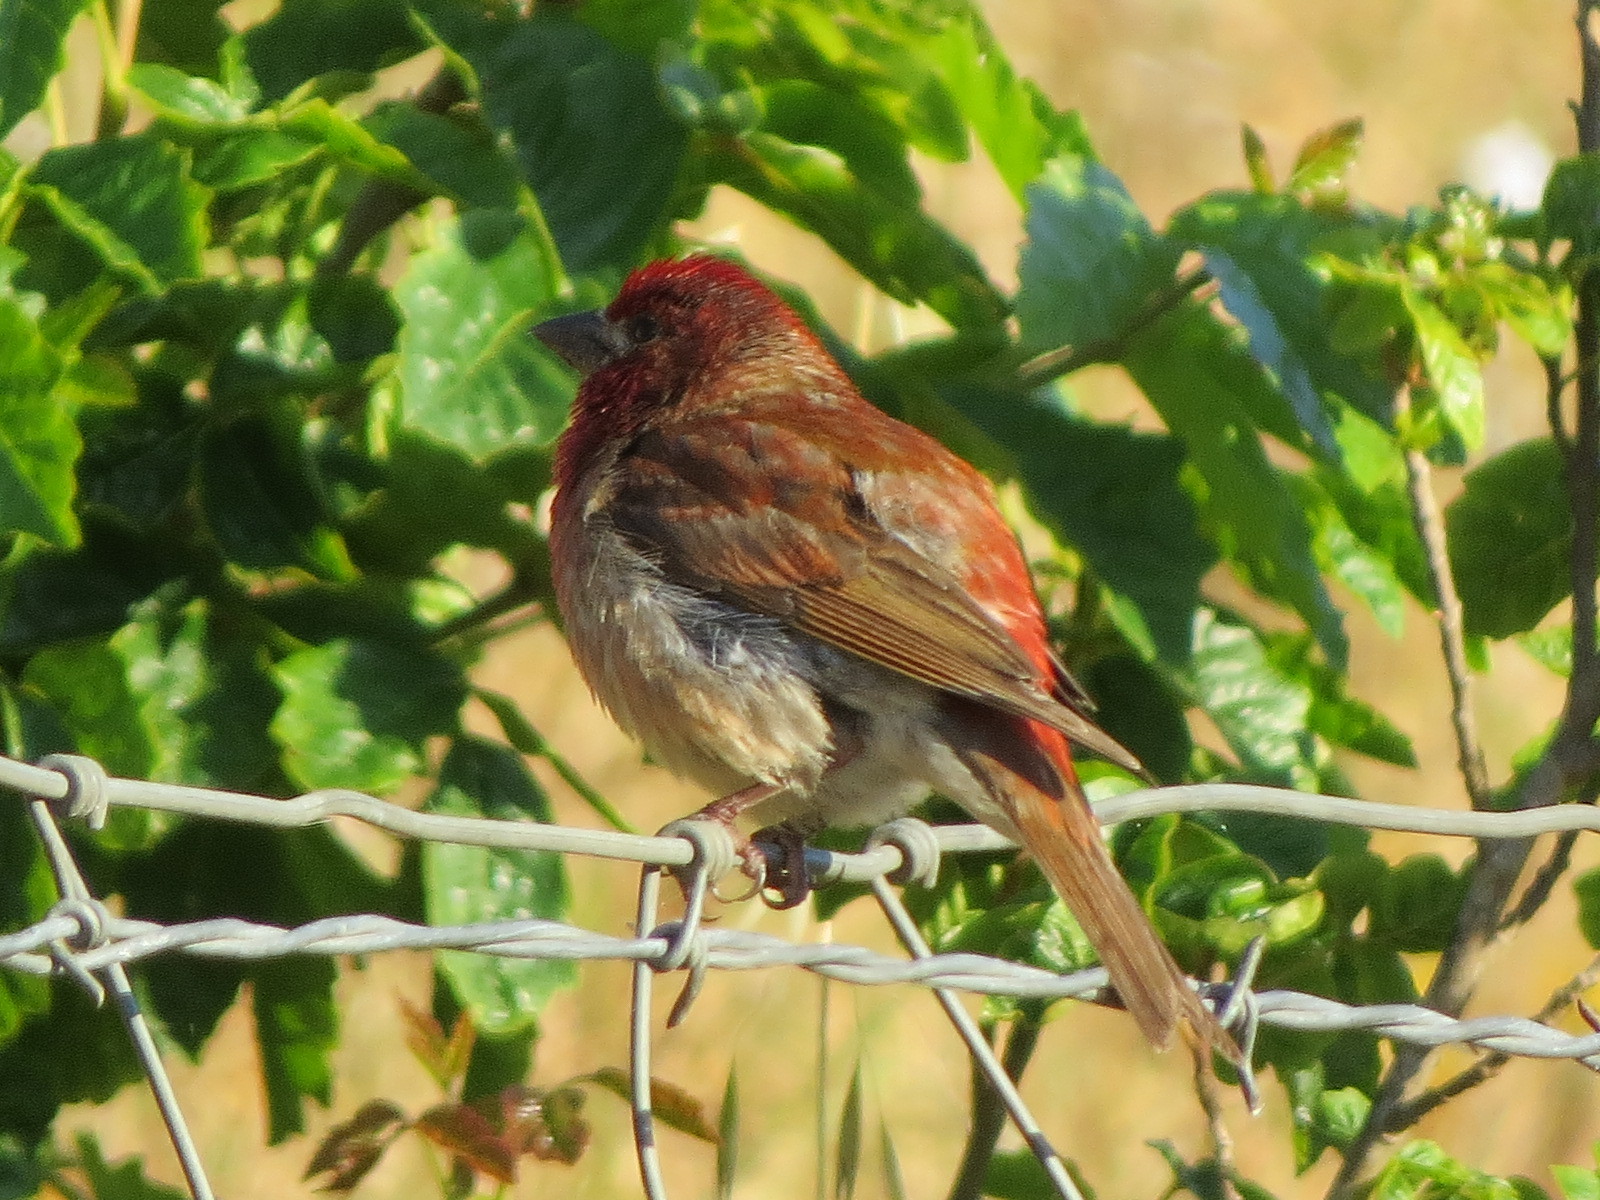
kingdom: Animalia
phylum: Chordata
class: Aves
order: Passeriformes
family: Fringillidae
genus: Haemorhous
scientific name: Haemorhous purpureus
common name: Purple finch
